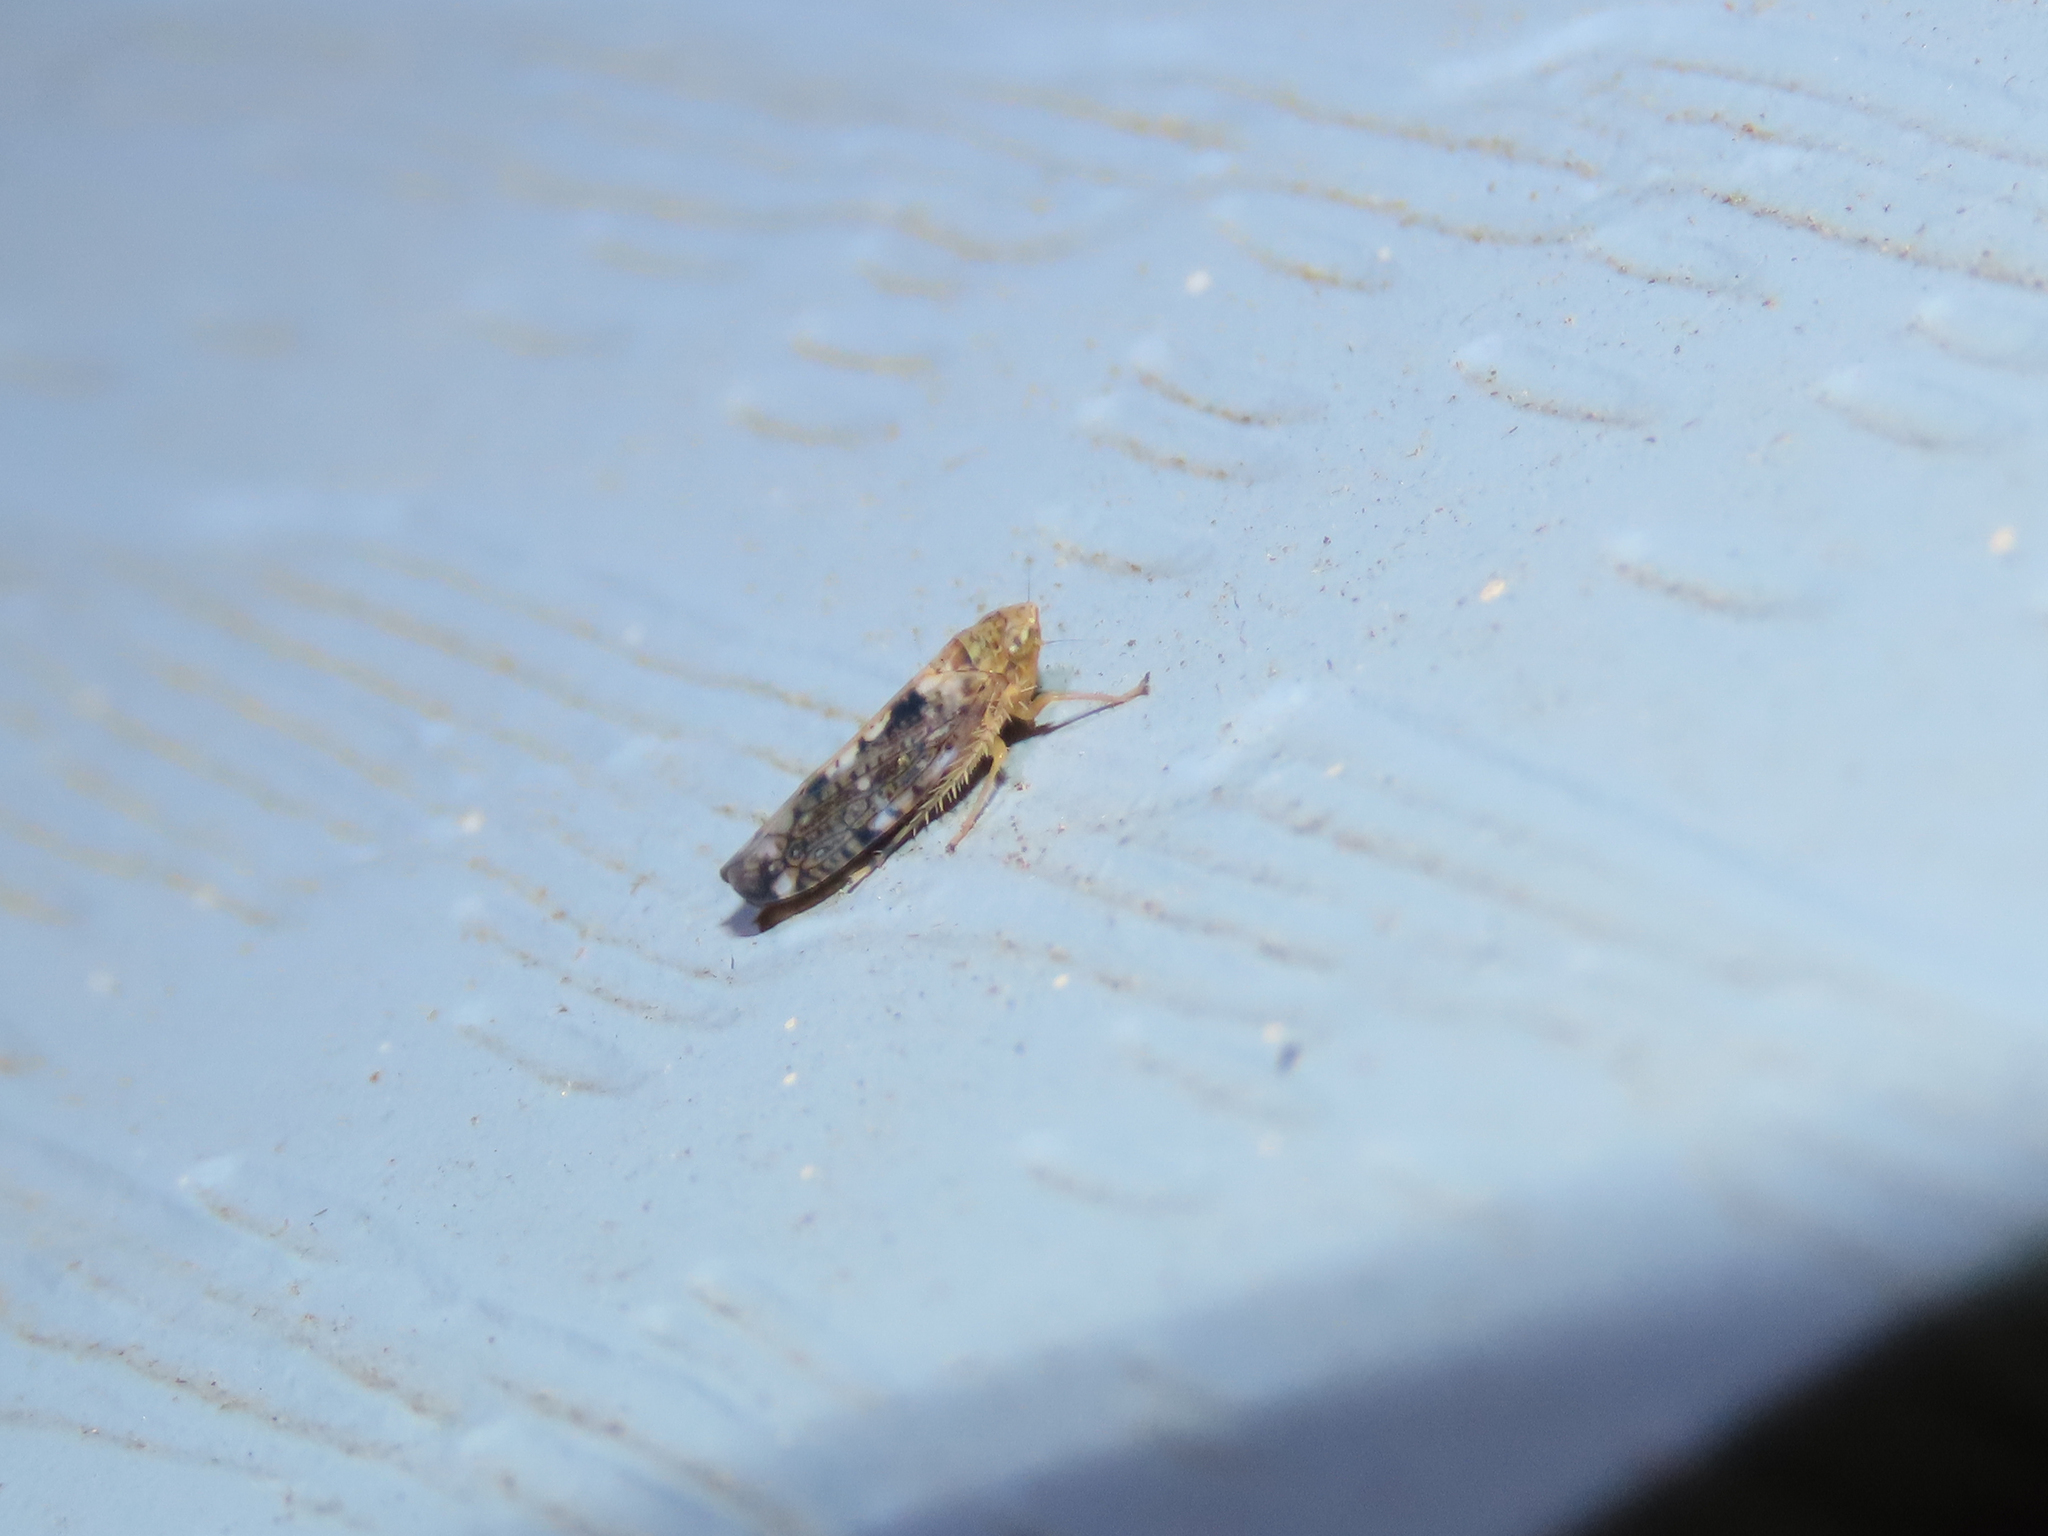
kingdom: Animalia
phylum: Arthropoda
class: Insecta
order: Hemiptera
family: Cicadellidae
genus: Prescottia
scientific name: Prescottia lobata
